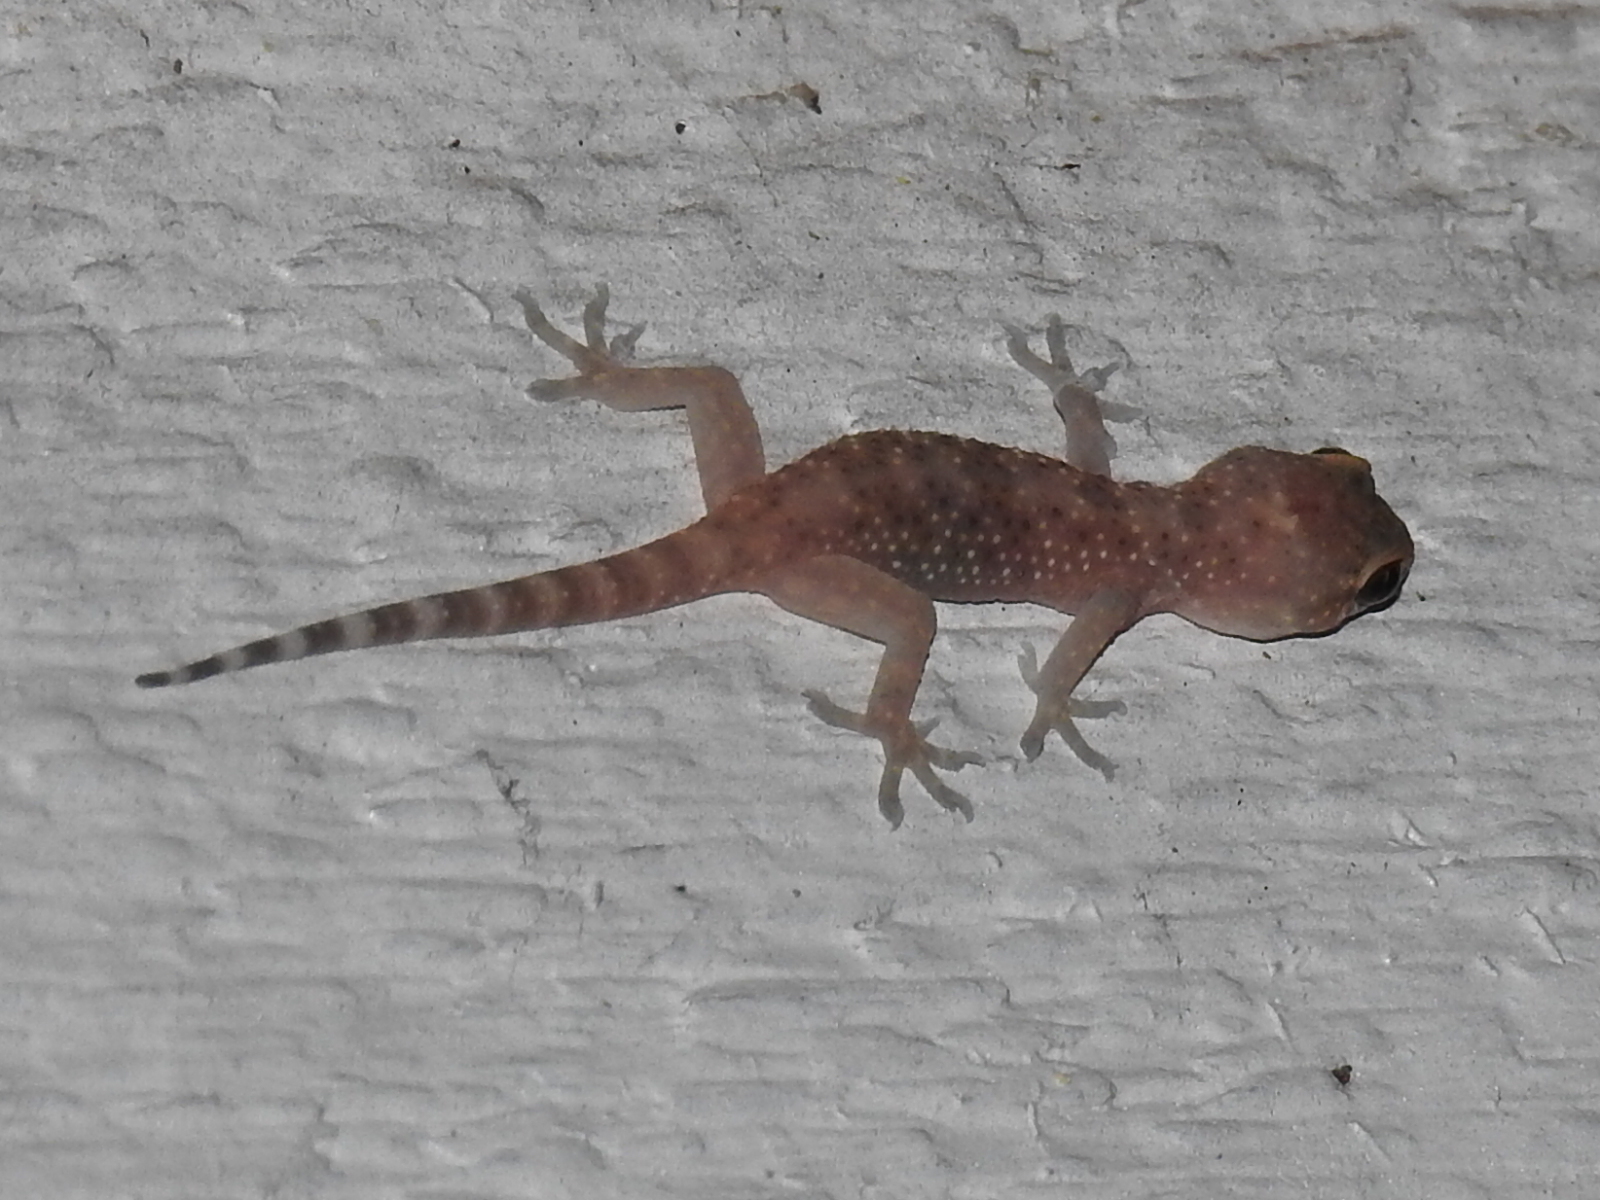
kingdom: Animalia
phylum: Chordata
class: Squamata
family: Gekkonidae
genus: Hemidactylus
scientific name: Hemidactylus turcicus
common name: Turkish gecko
